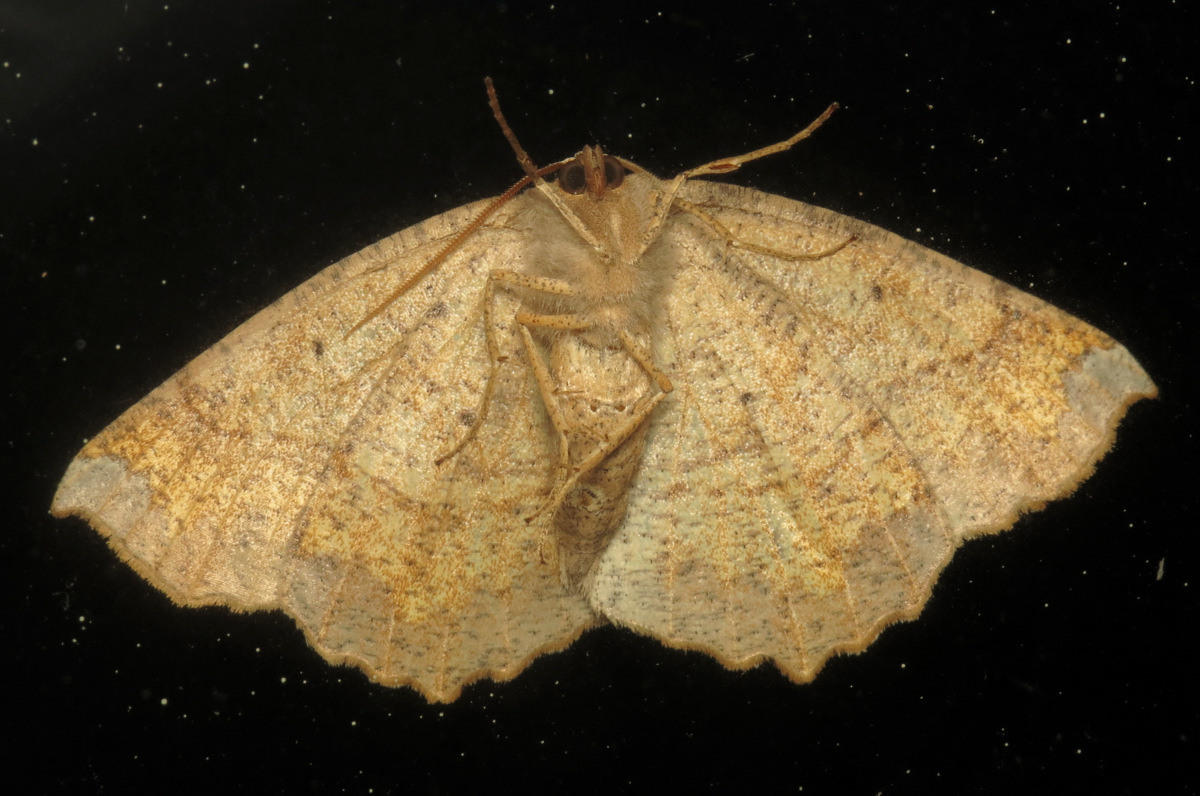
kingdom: Animalia
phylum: Arthropoda
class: Insecta
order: Lepidoptera
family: Geometridae
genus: Eutrapela
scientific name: Eutrapela clemataria
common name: Curved-toothed geometer
